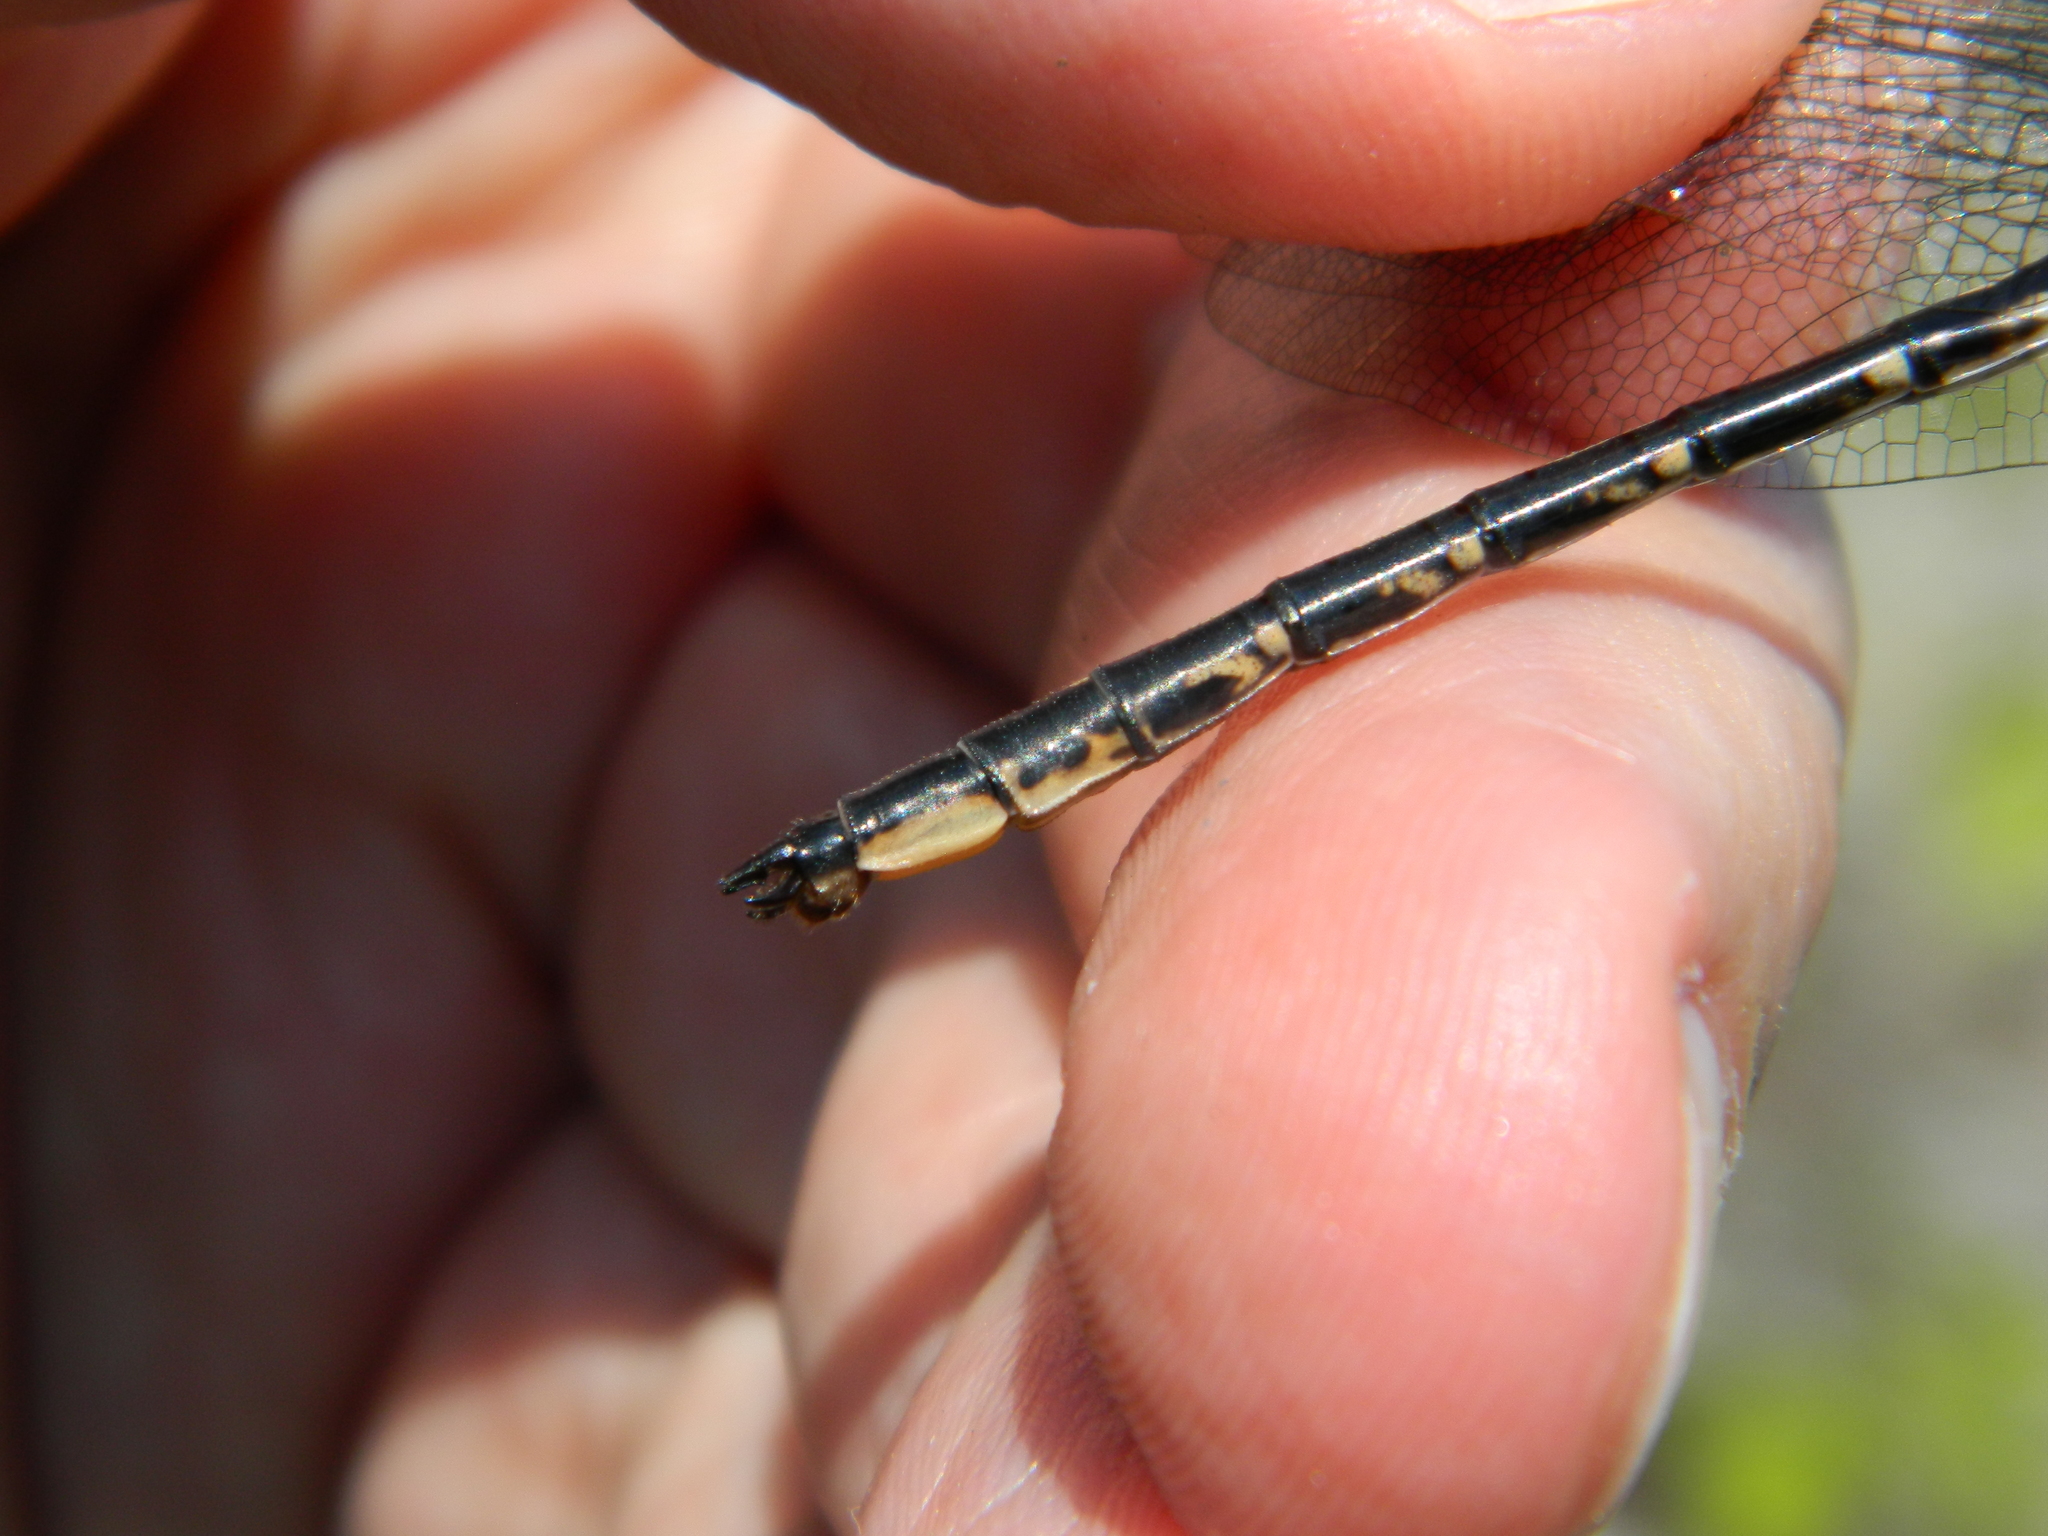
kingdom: Animalia
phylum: Arthropoda
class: Insecta
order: Odonata
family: Gomphidae
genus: Phanogomphus
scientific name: Phanogomphus spicatus
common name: Dusky clubtail
